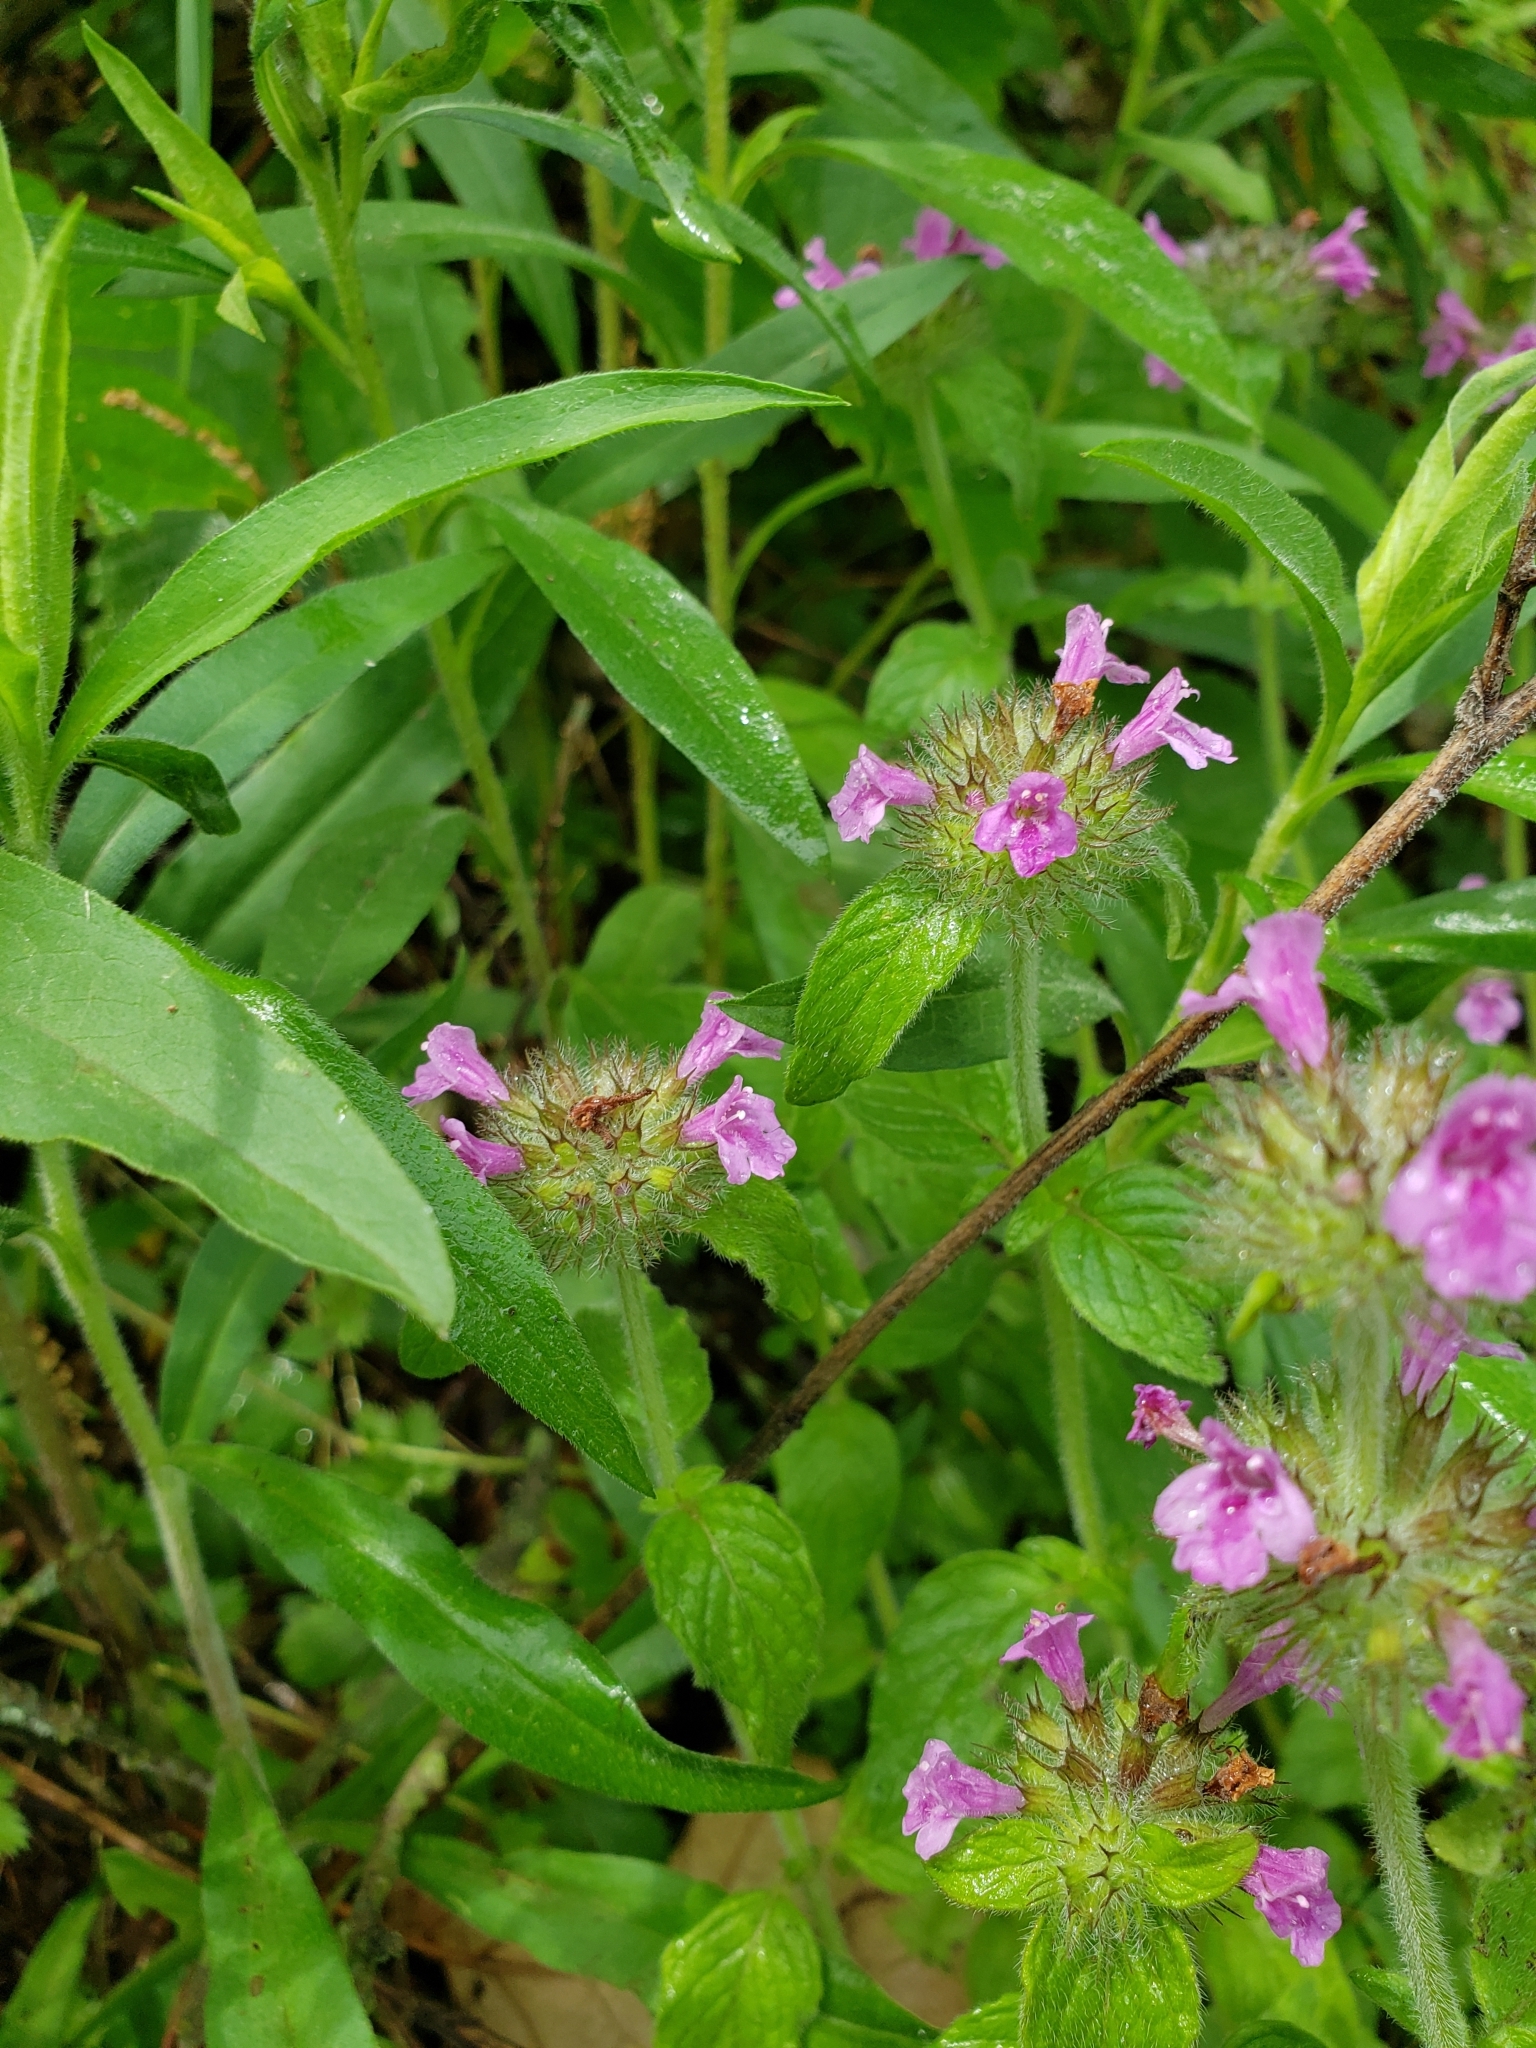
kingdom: Animalia
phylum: Arthropoda
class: Insecta
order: Lepidoptera
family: Pieridae
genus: Pieris
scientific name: Pieris rapae
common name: Small white
